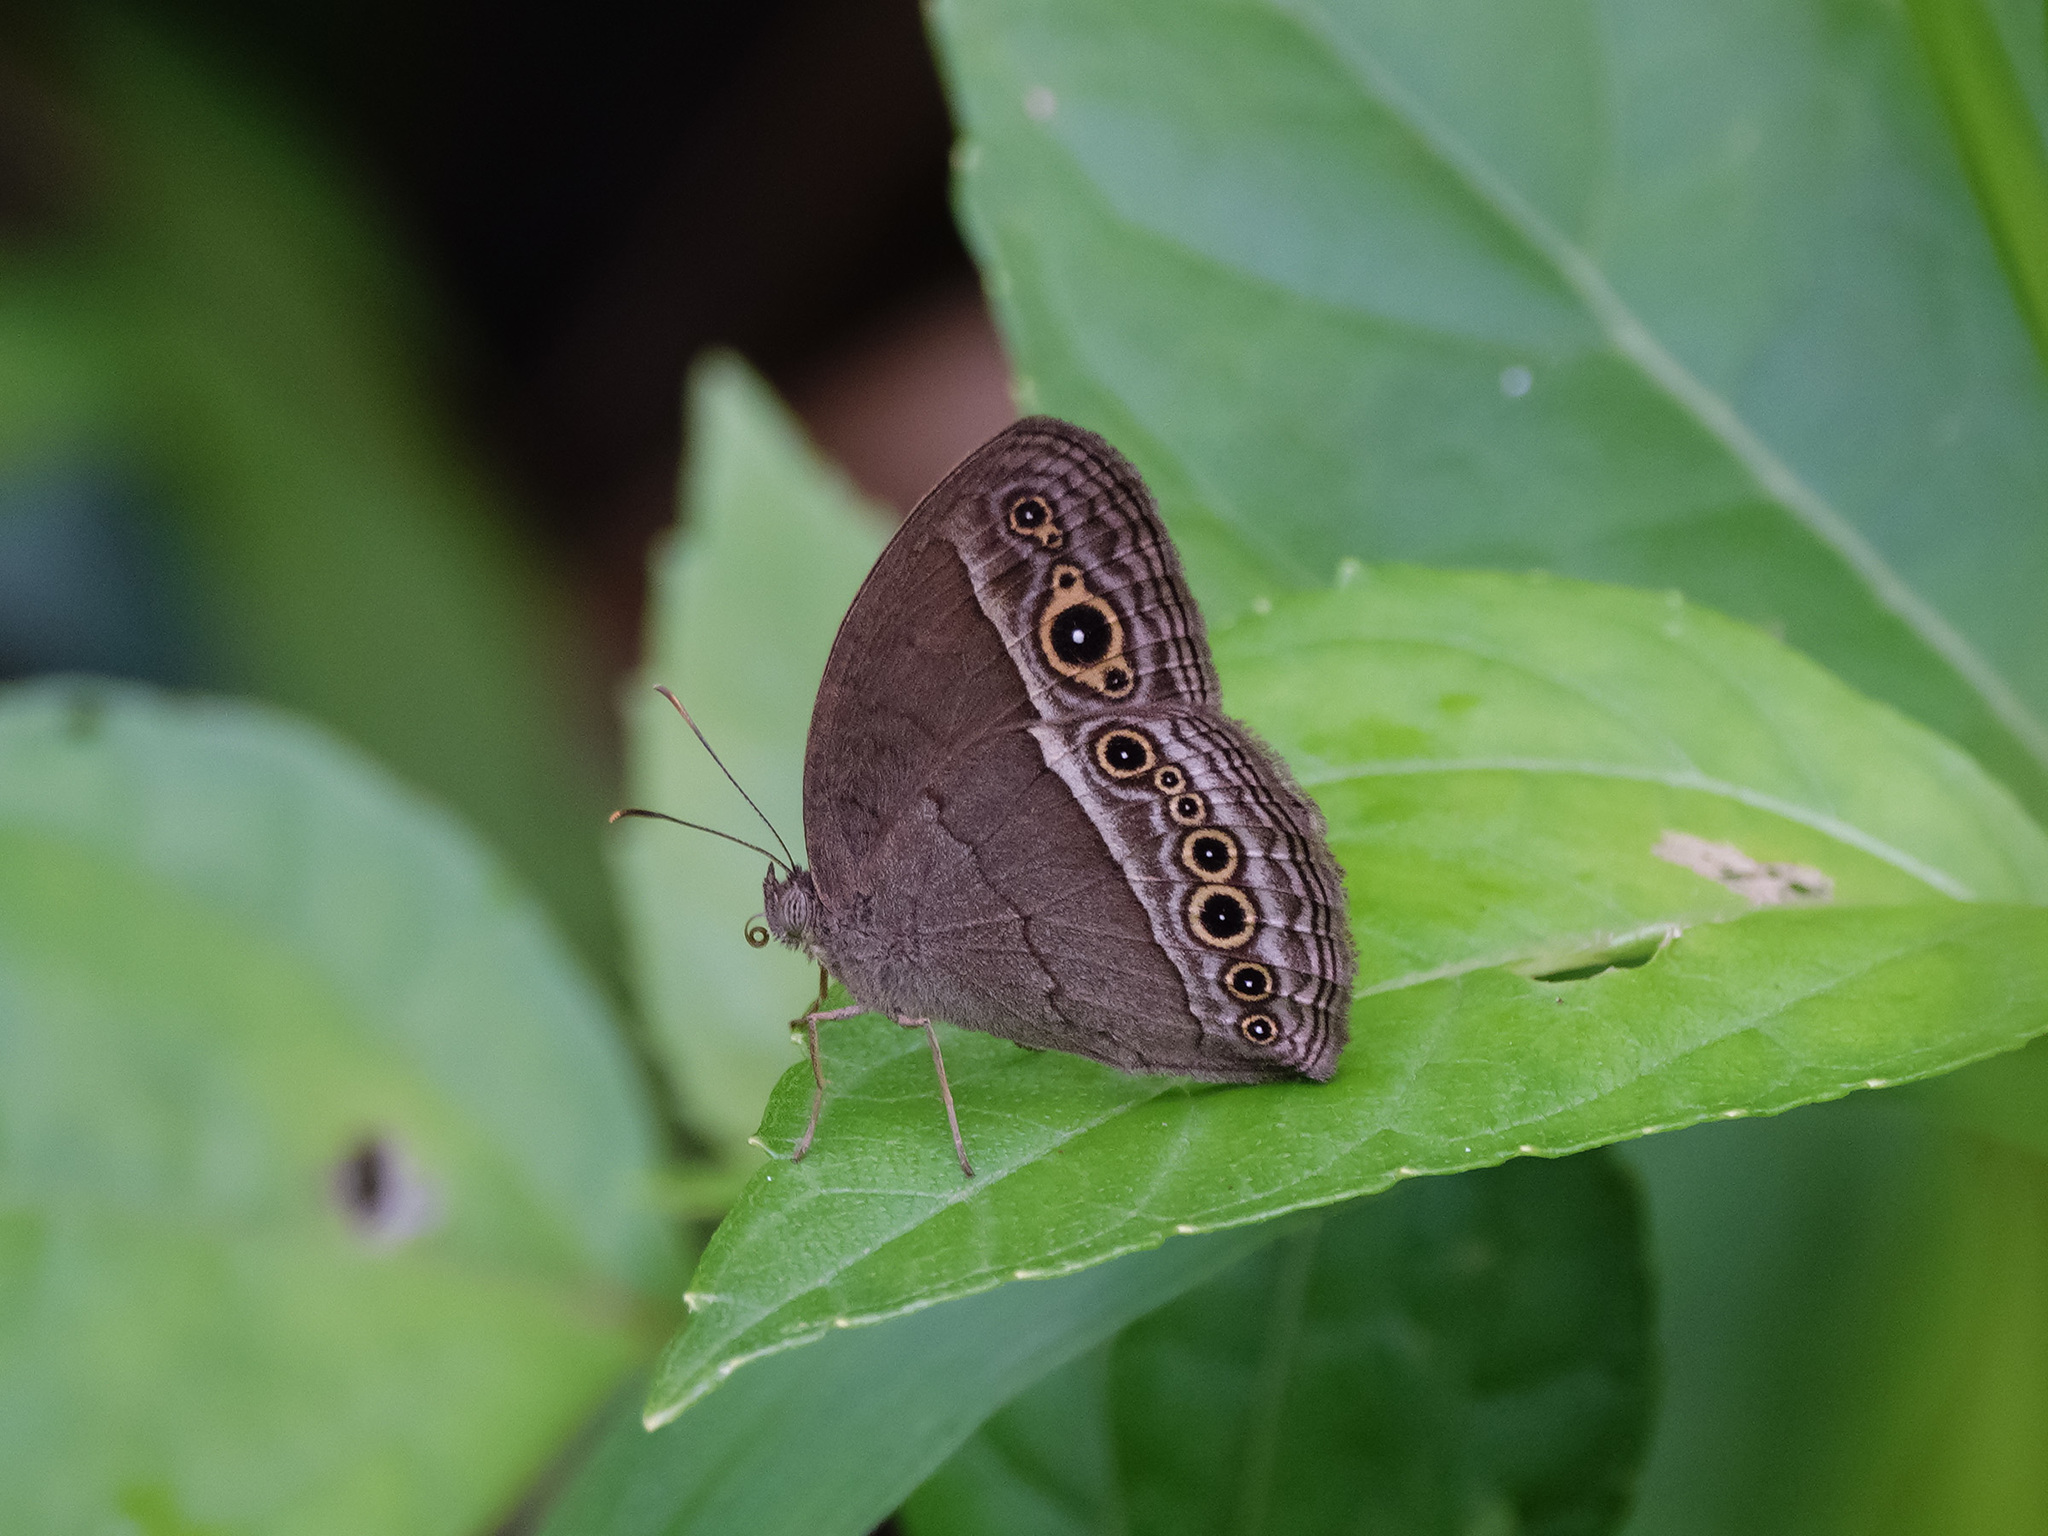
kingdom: Animalia
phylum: Arthropoda
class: Insecta
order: Lepidoptera
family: Nymphalidae
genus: Mycalesis
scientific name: Mycalesis perseoides
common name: Burmese bushbrown
